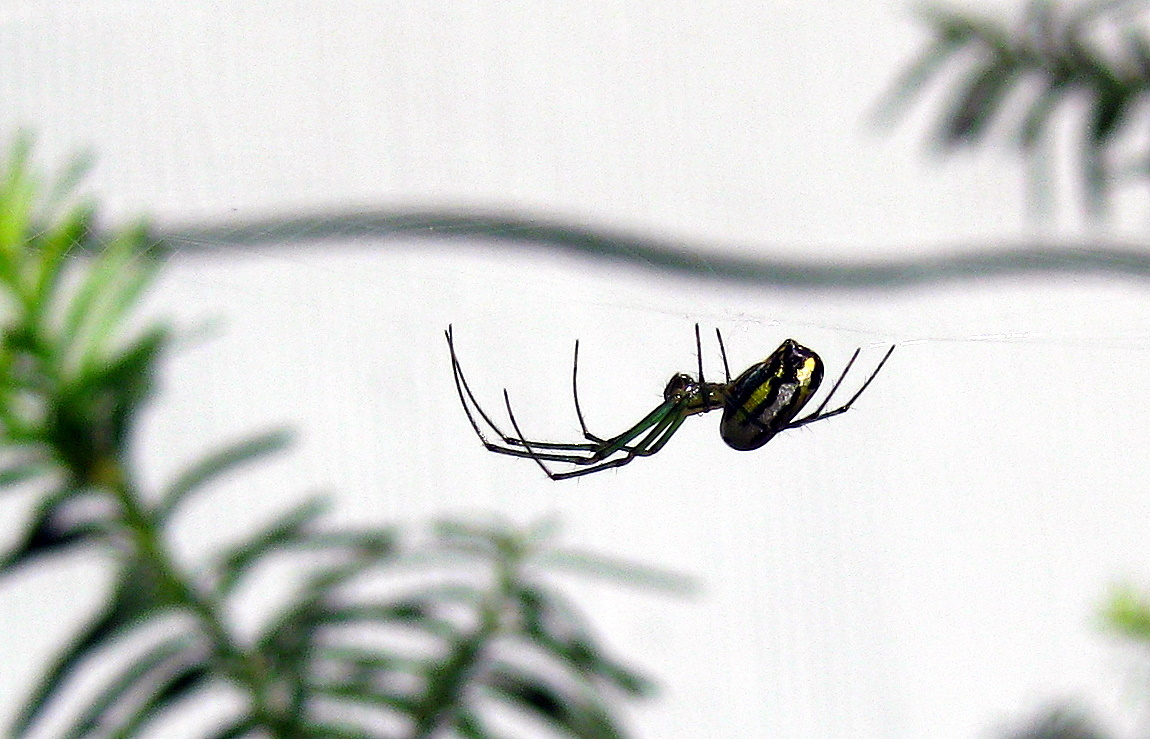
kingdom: Animalia
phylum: Arthropoda
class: Arachnida
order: Araneae
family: Tetragnathidae
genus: Leucauge
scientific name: Leucauge venusta
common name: Longjawed orb weavers
